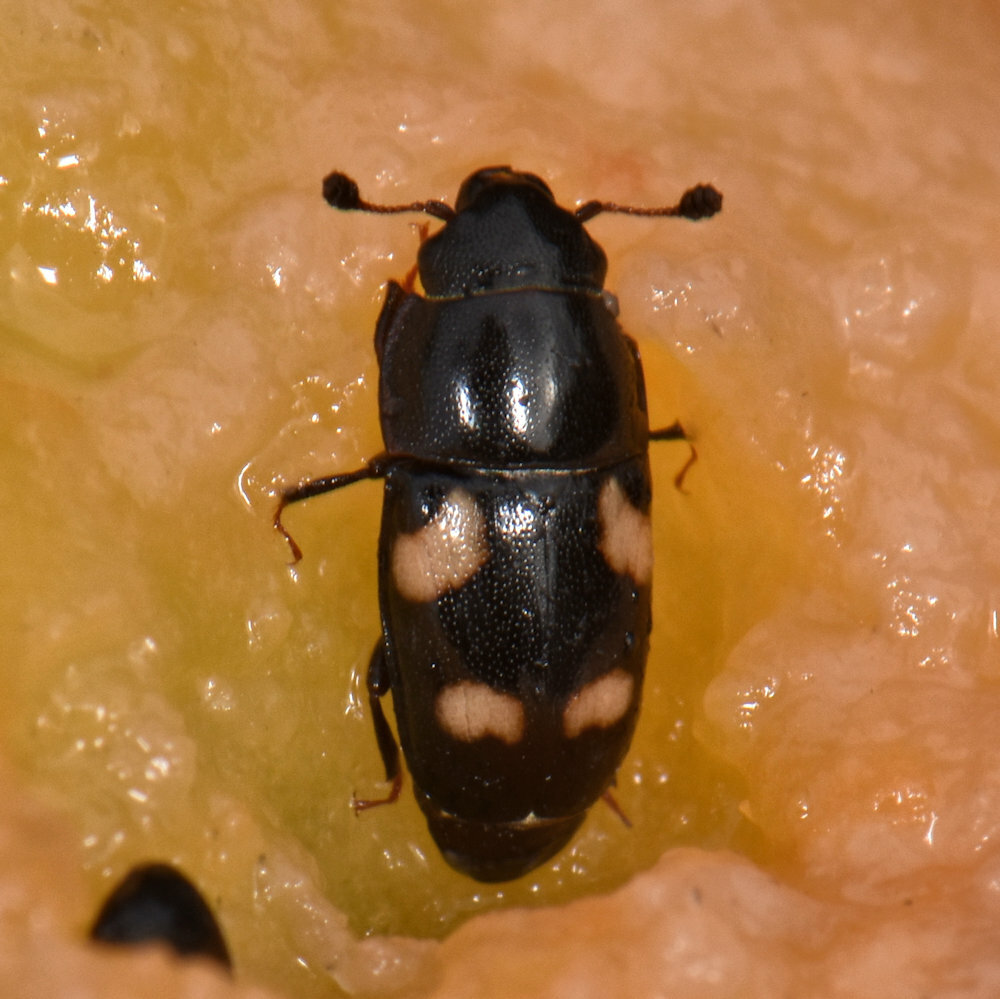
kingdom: Animalia
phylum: Arthropoda
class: Insecta
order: Coleoptera
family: Nitidulidae
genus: Glischrochilus
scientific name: Glischrochilus quadrisignatus
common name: Picnic beetle
